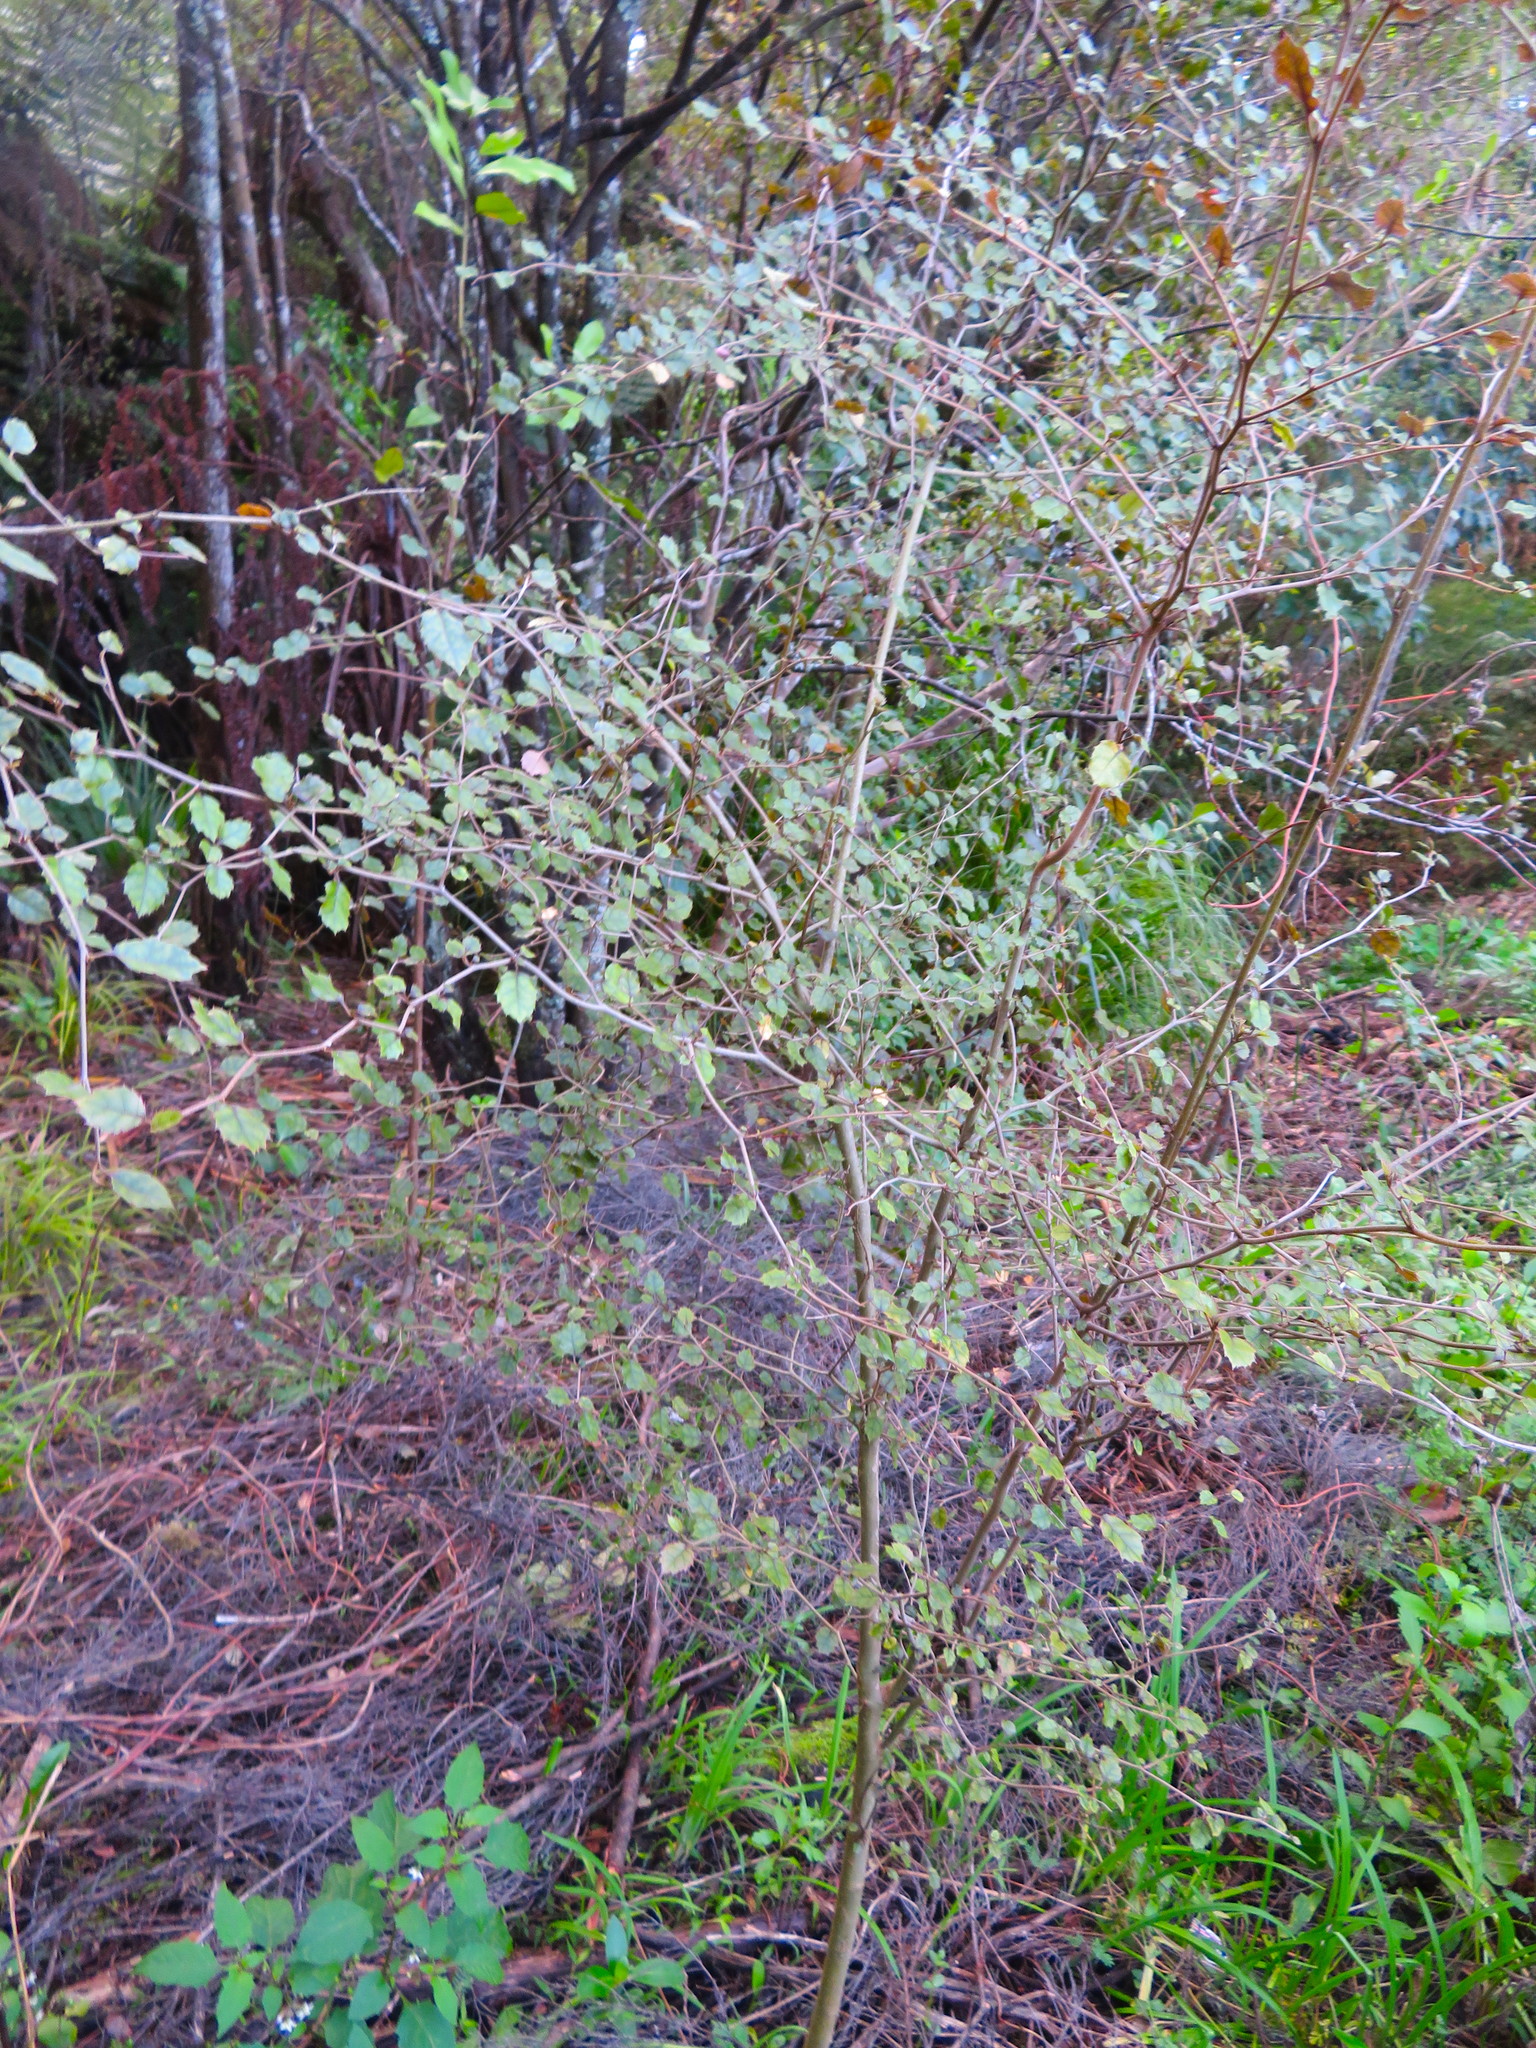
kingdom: Plantae
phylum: Tracheophyta
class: Magnoliopsida
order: Asterales
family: Rousseaceae
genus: Carpodetus
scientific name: Carpodetus serratus
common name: White mapau
